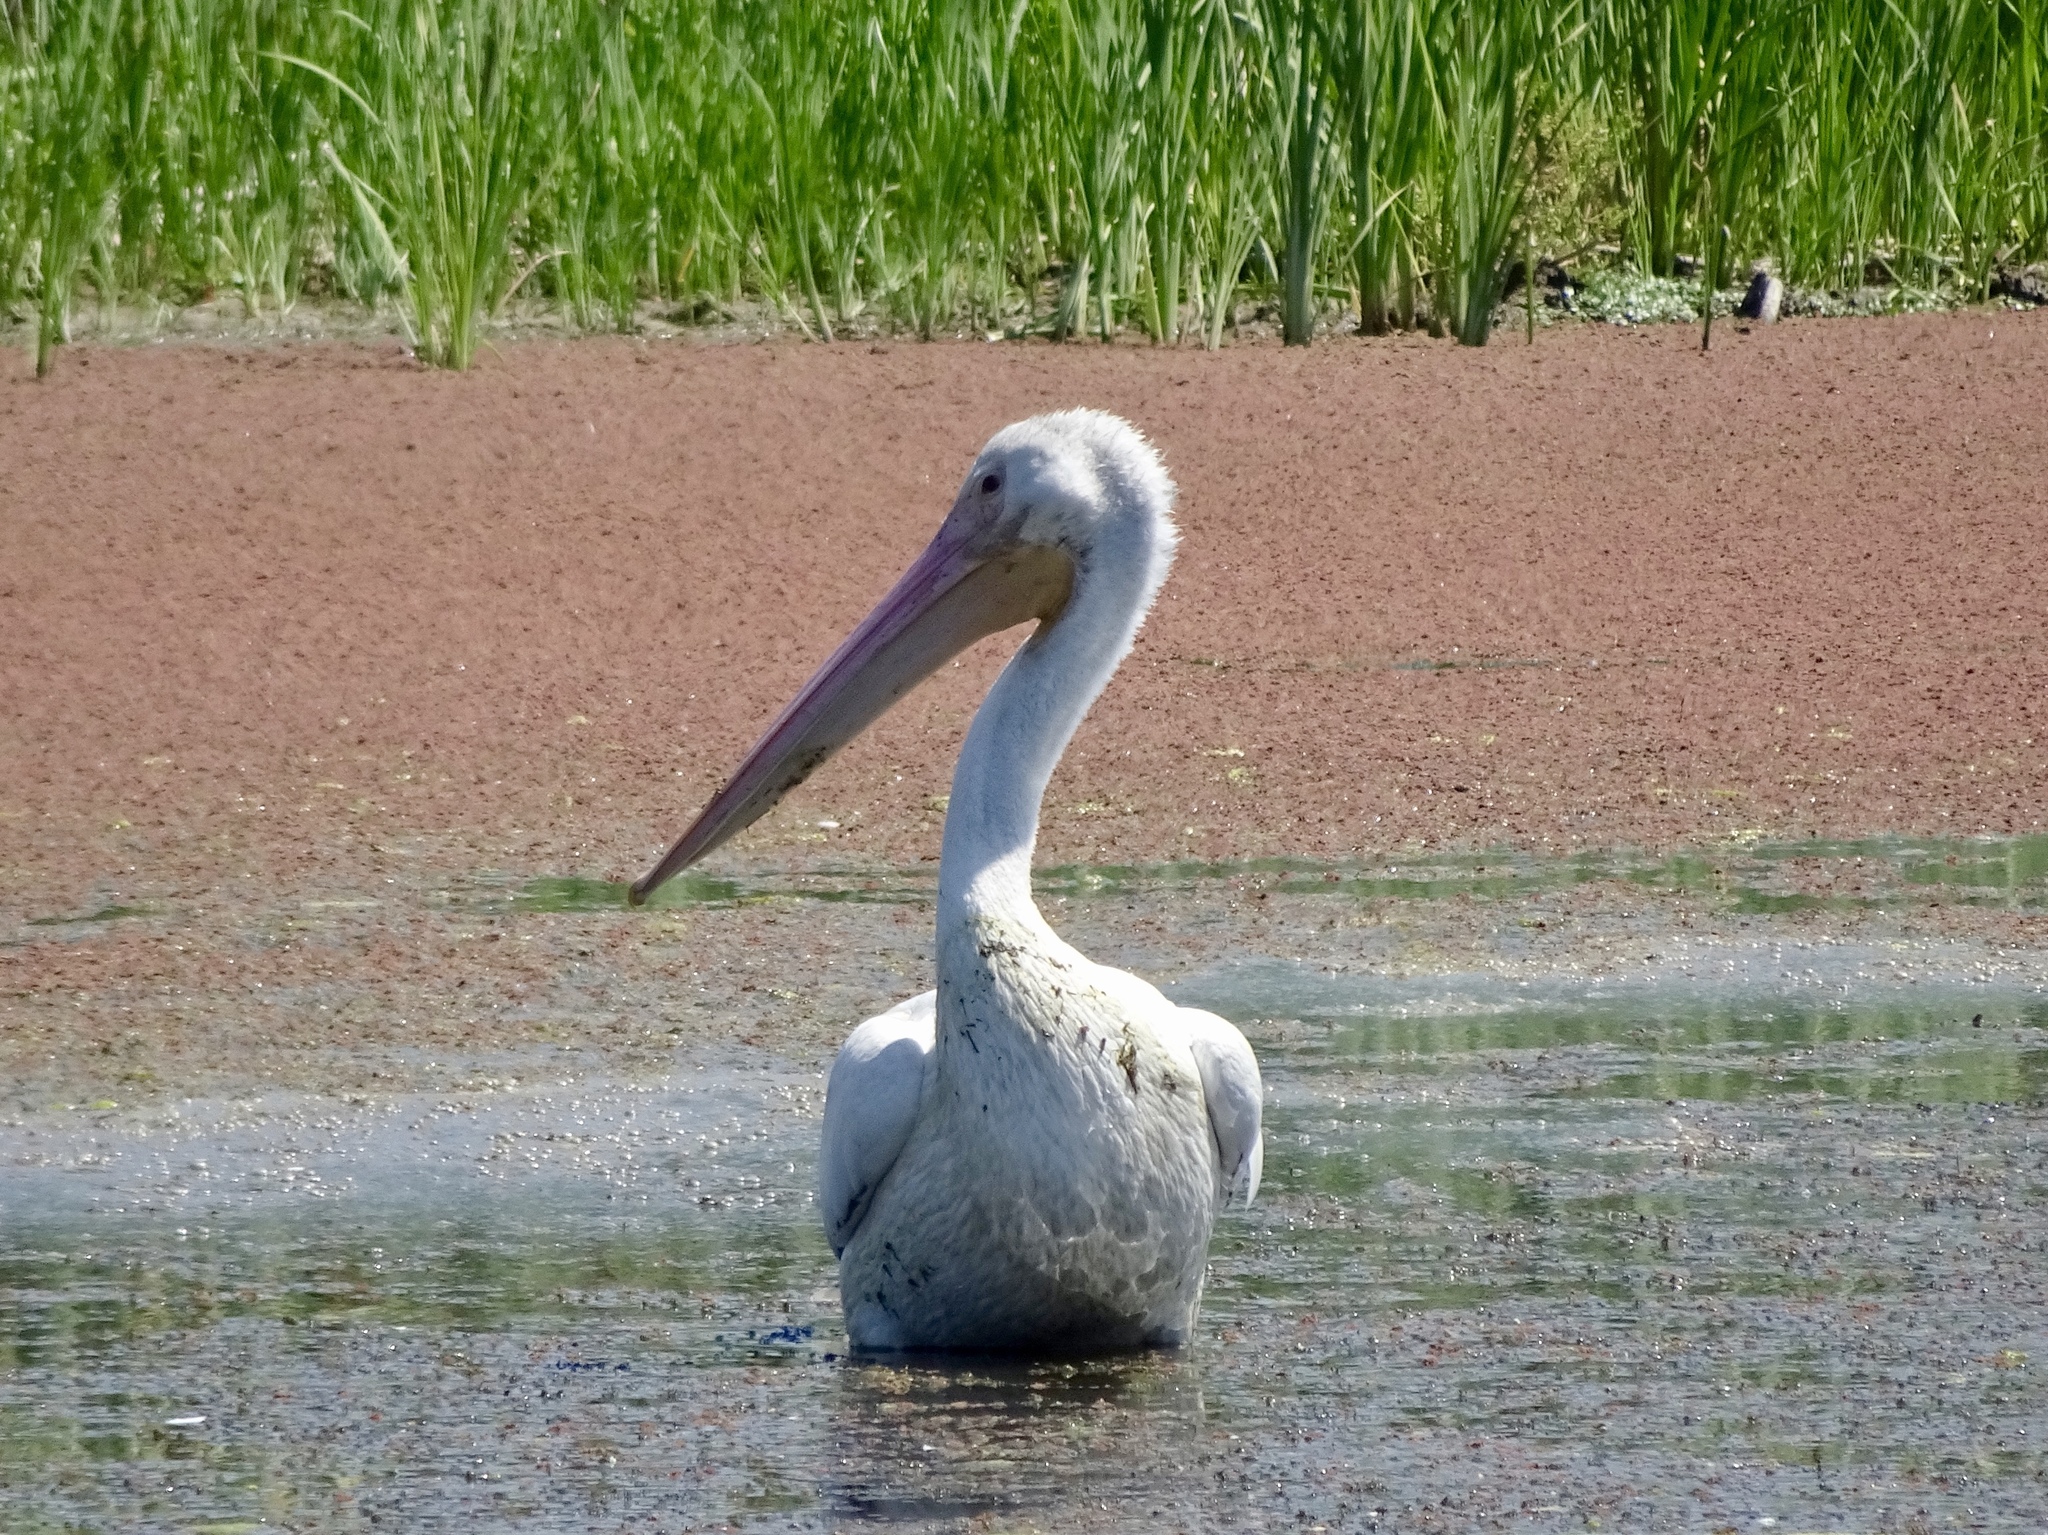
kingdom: Animalia
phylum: Chordata
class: Aves
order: Pelecaniformes
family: Pelecanidae
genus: Pelecanus
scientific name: Pelecanus erythrorhynchos
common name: American white pelican
